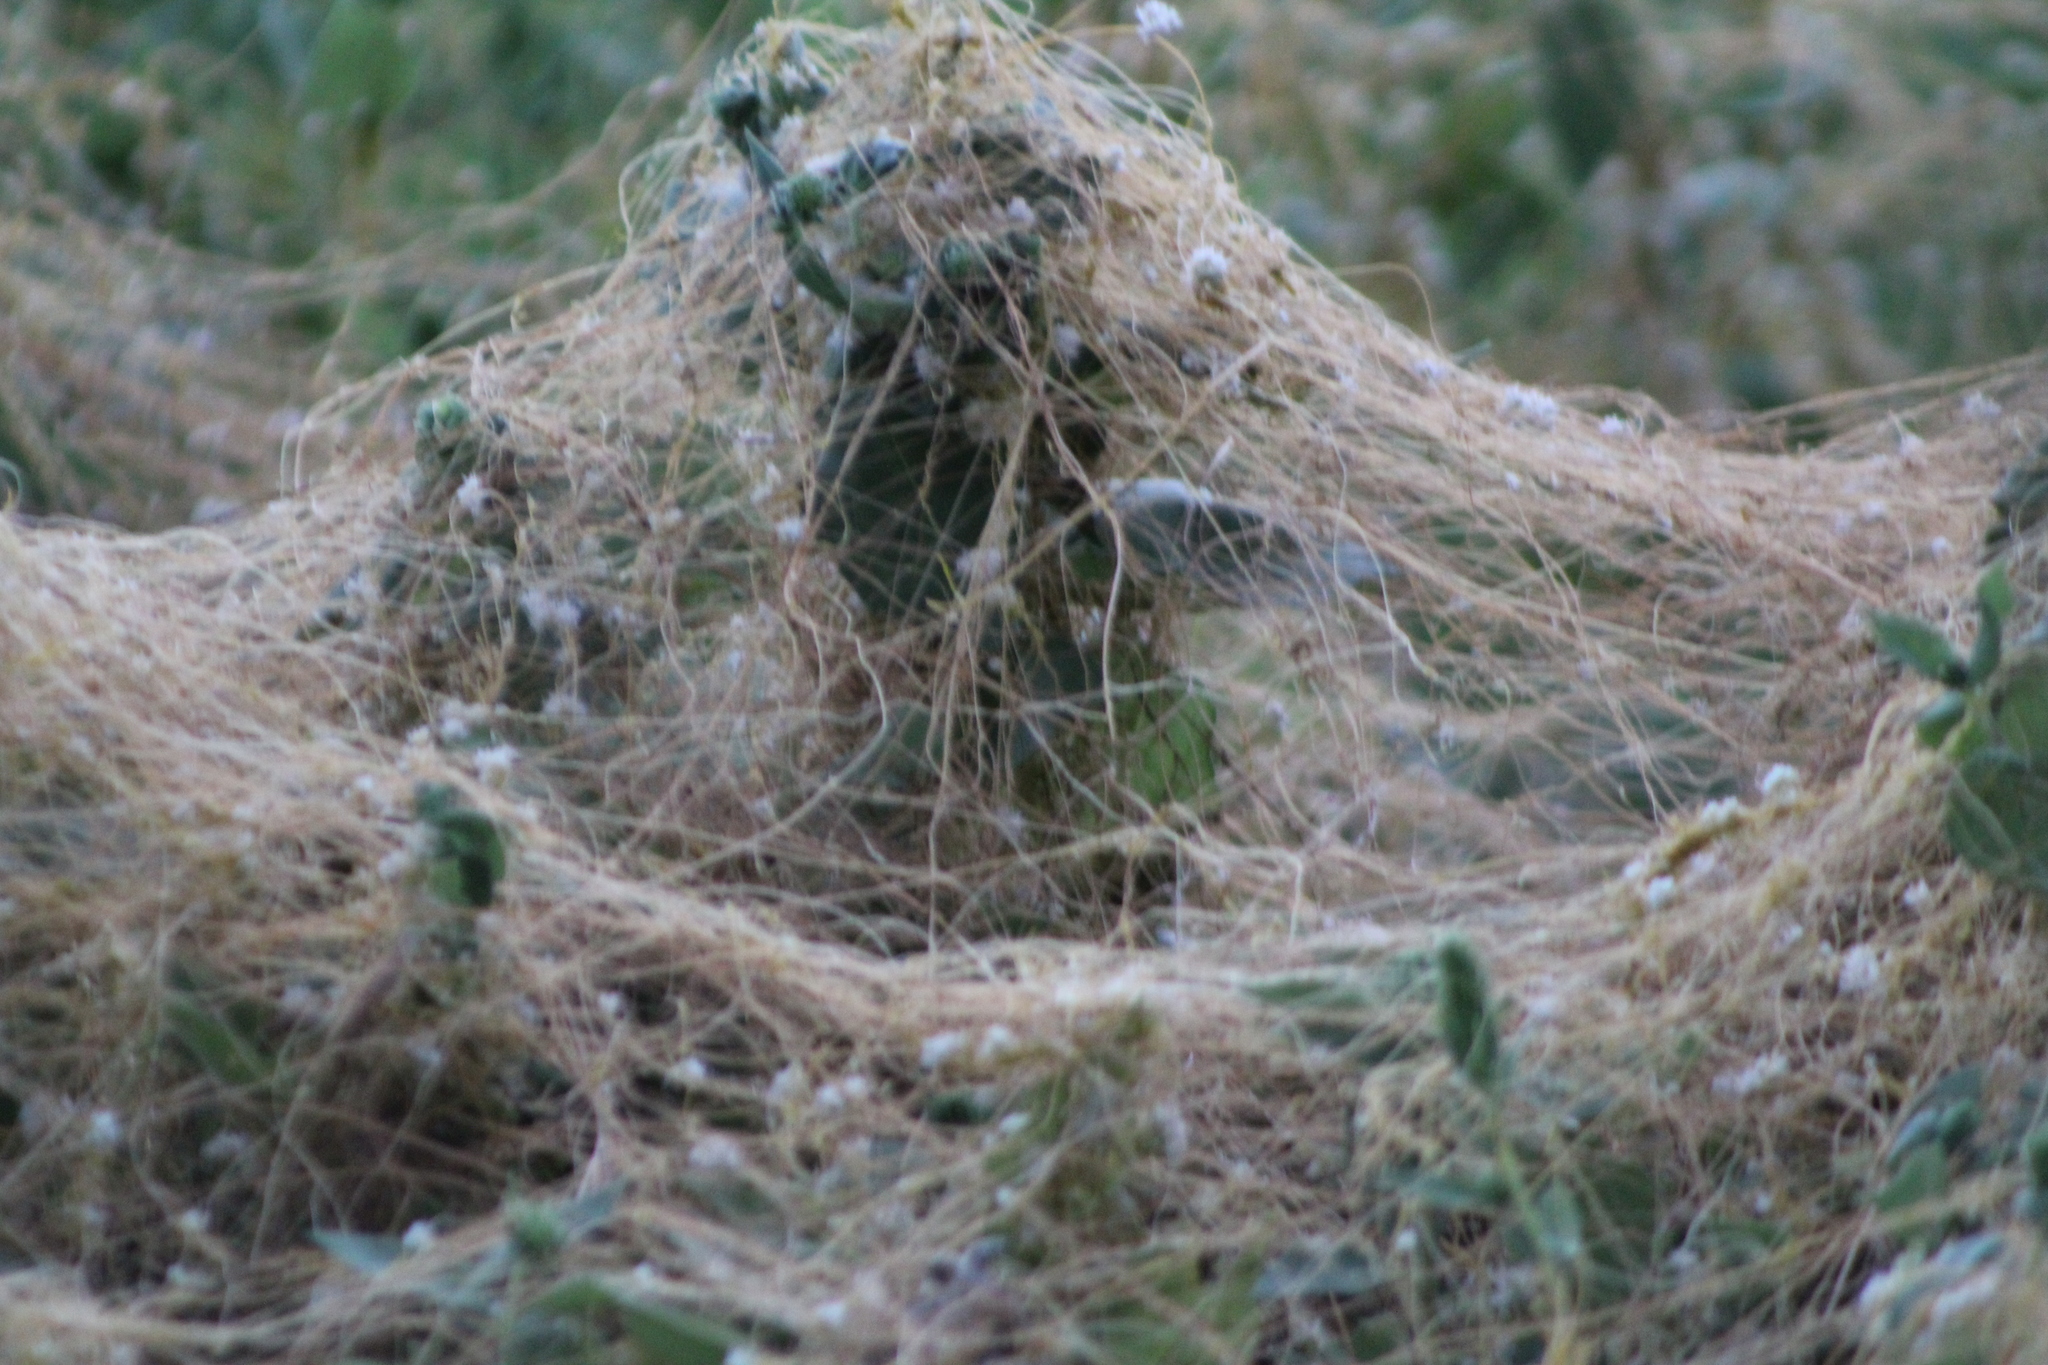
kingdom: Plantae
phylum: Tracheophyta
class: Magnoliopsida
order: Solanales
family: Convolvulaceae
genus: Cuscuta
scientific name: Cuscuta
